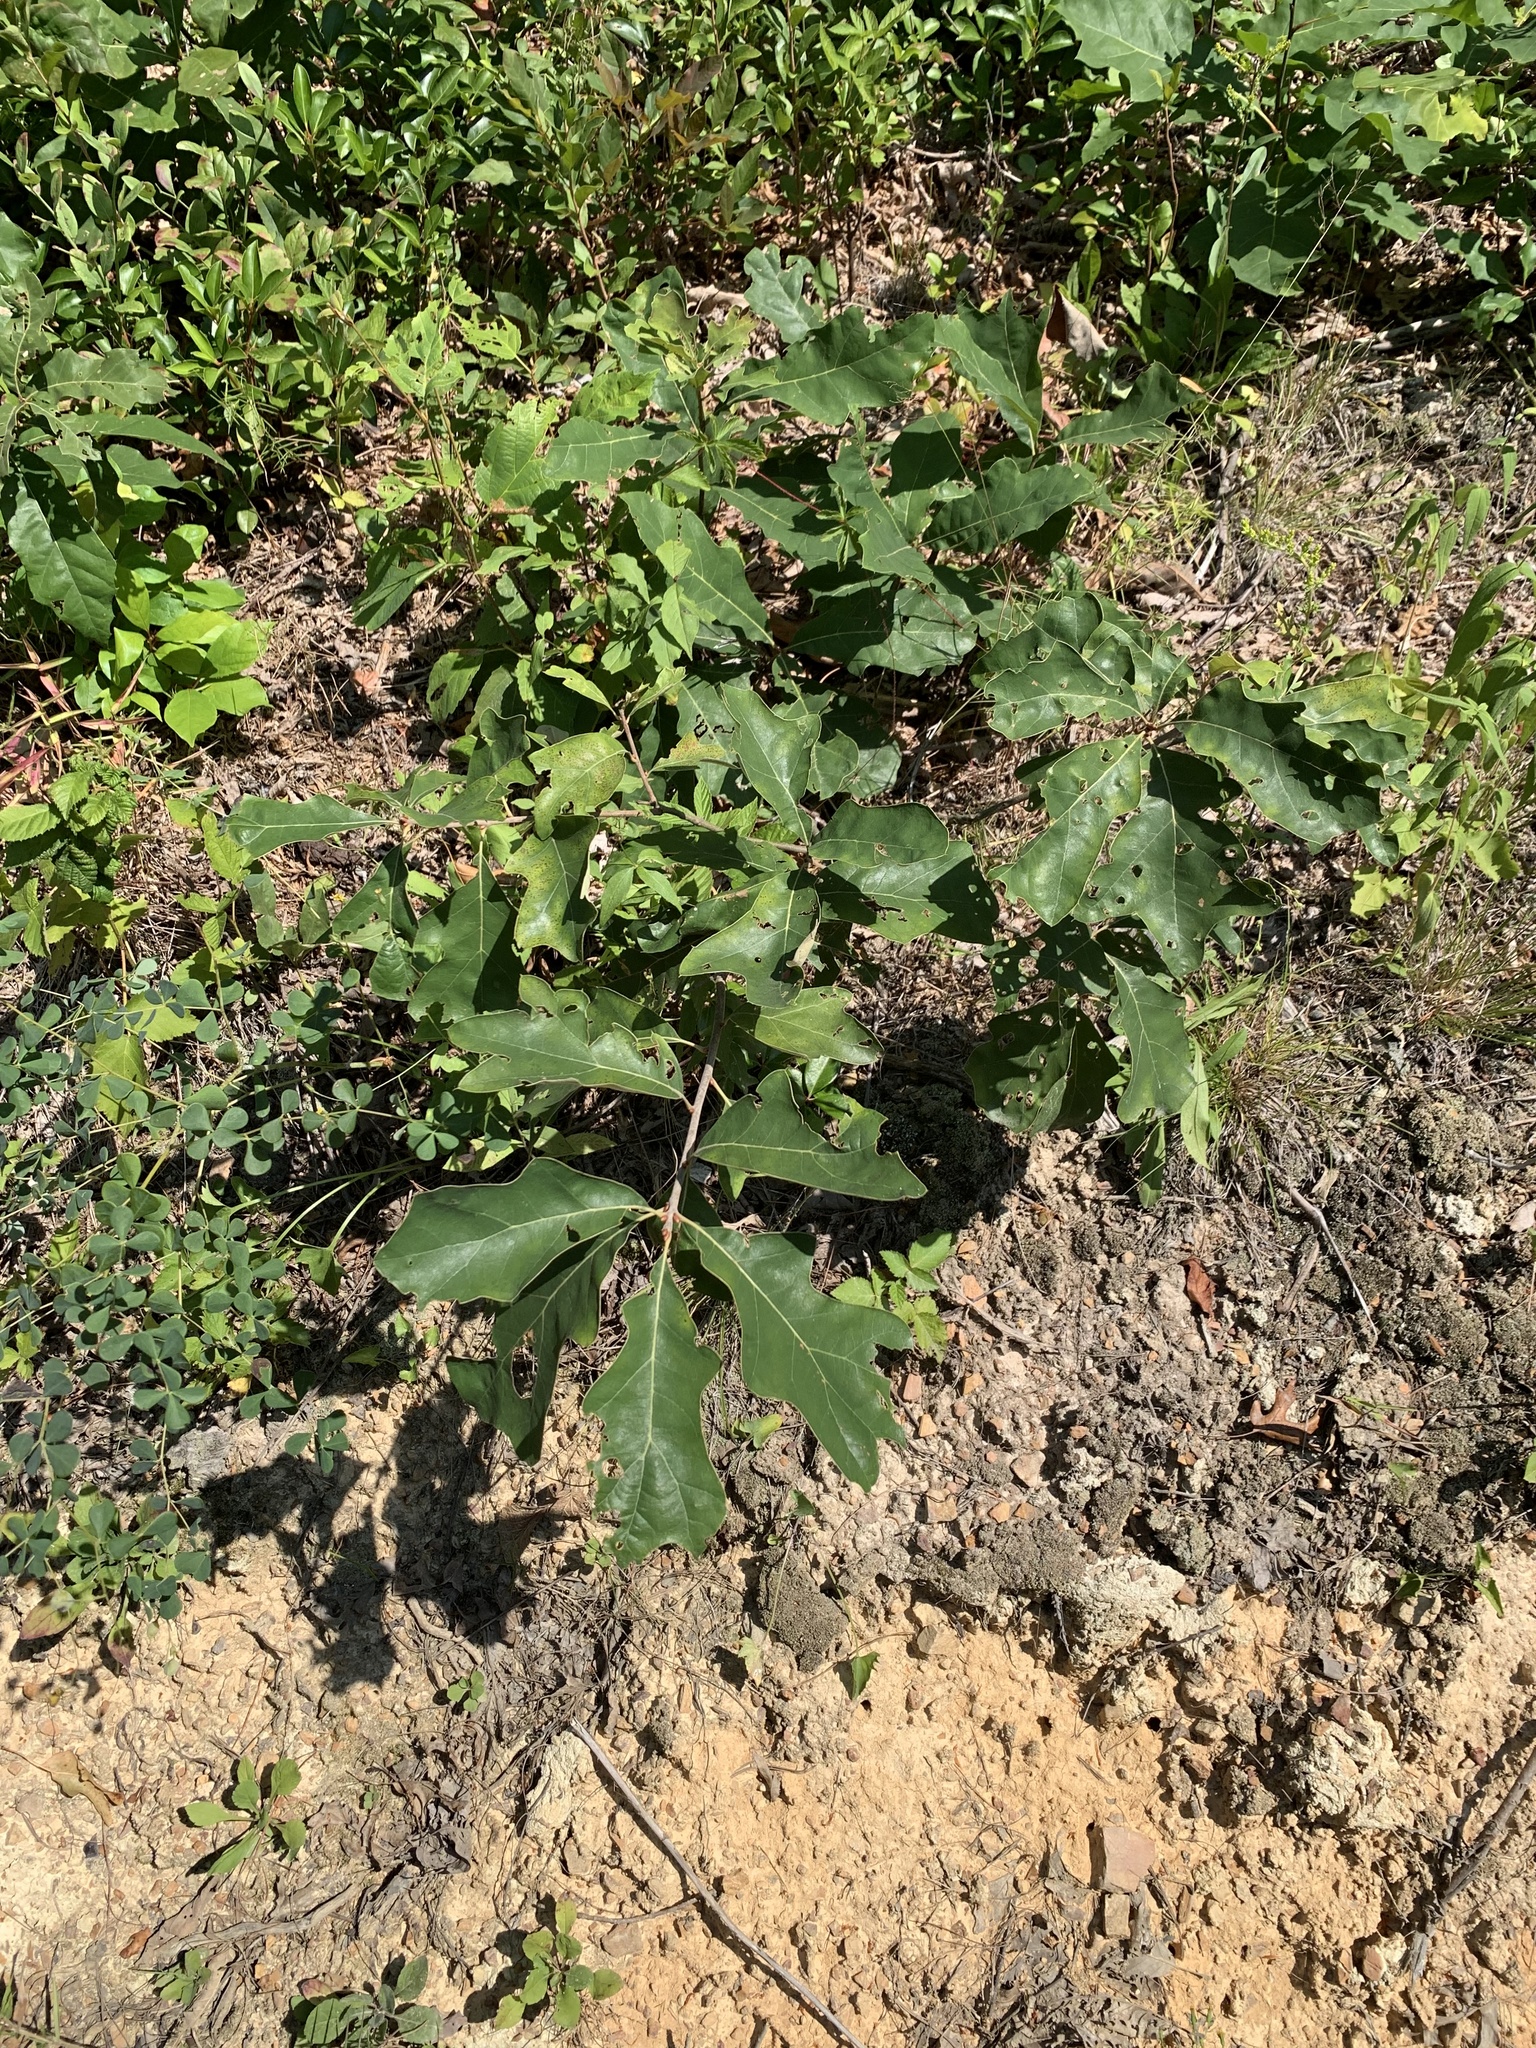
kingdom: Plantae
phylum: Tracheophyta
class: Magnoliopsida
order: Fagales
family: Fagaceae
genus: Quercus
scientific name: Quercus ilicifolia
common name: Bear oak
